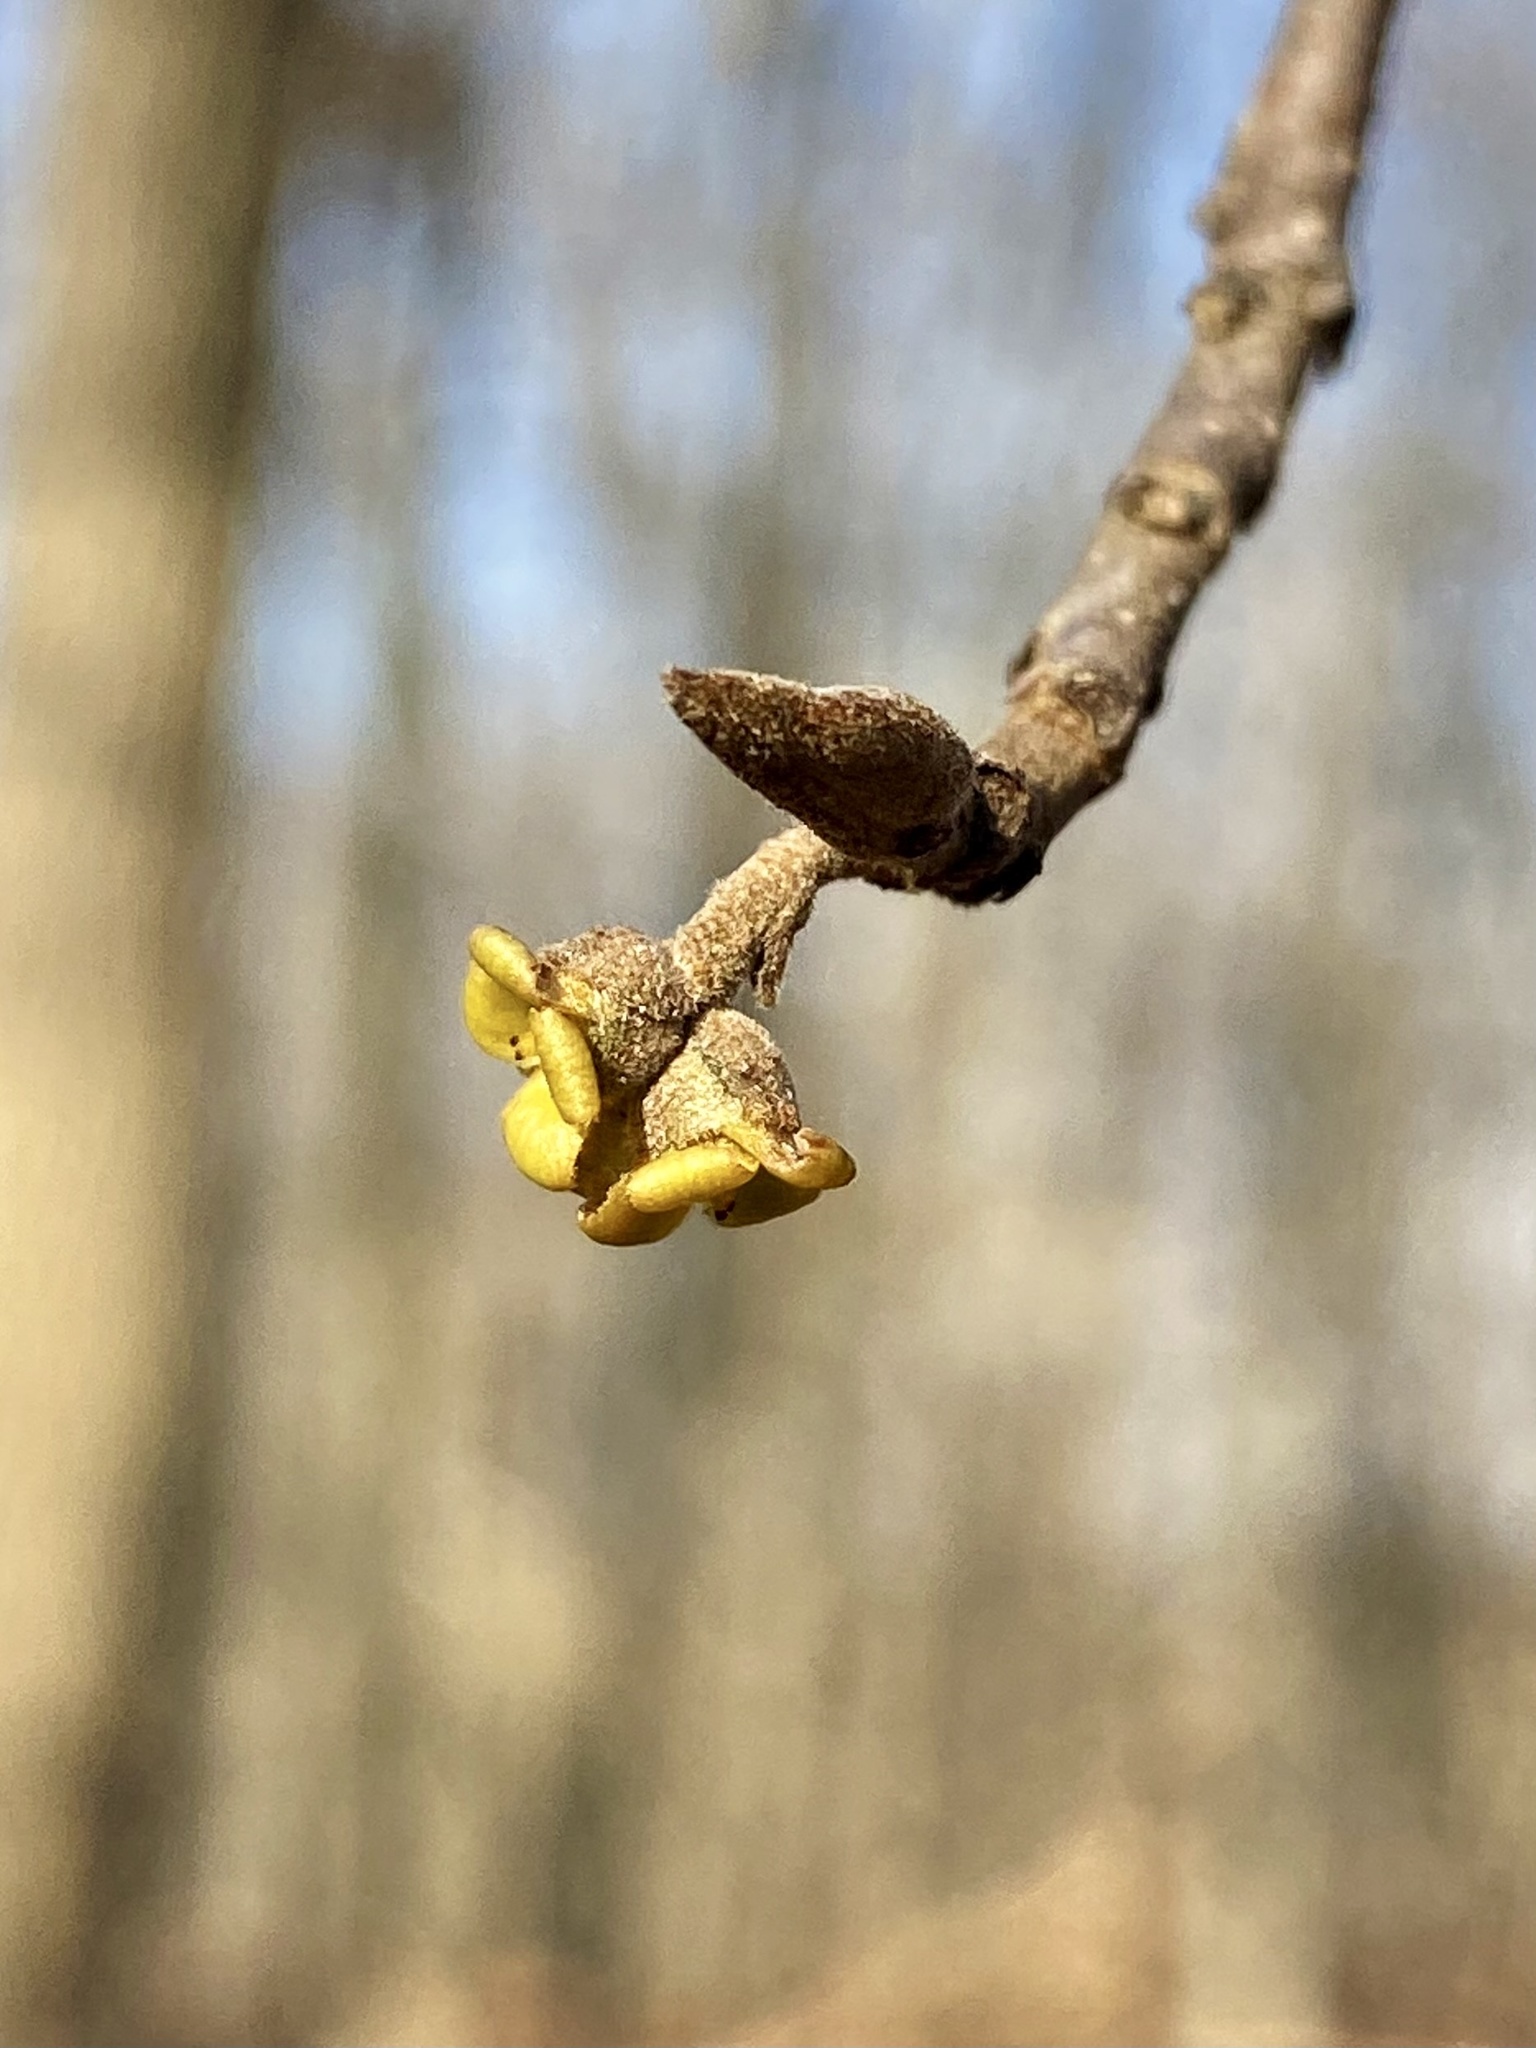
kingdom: Plantae
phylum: Tracheophyta
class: Magnoliopsida
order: Saxifragales
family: Hamamelidaceae
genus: Hamamelis
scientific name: Hamamelis virginiana
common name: Witch-hazel
